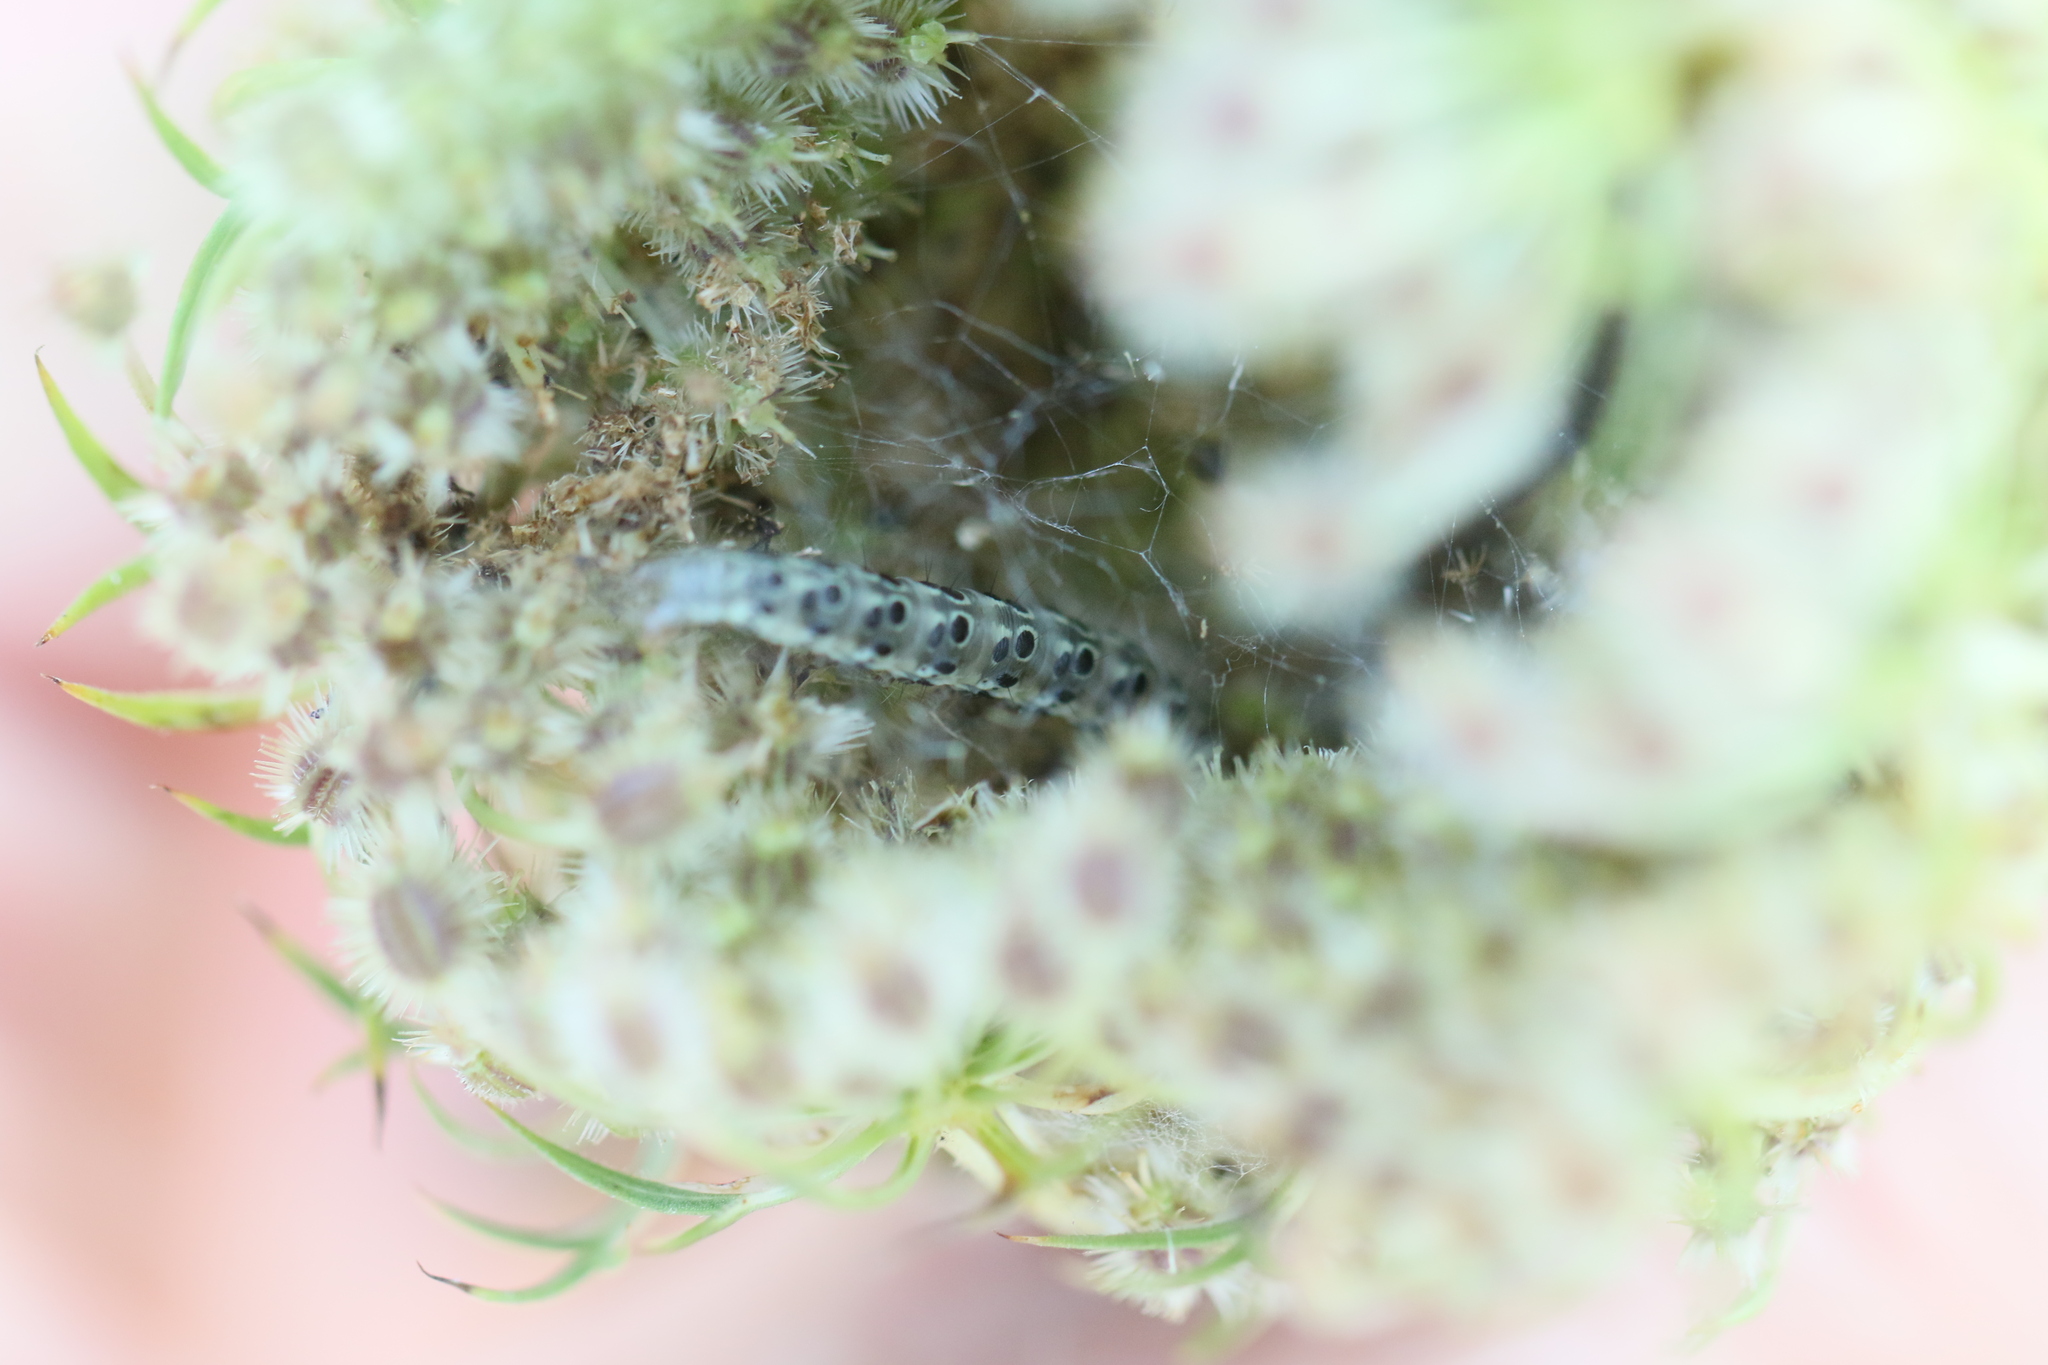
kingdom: Animalia
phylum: Arthropoda
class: Insecta
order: Lepidoptera
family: Crambidae
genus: Sitochroa
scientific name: Sitochroa palealis
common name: Greenish-yellow sitochroa moth
